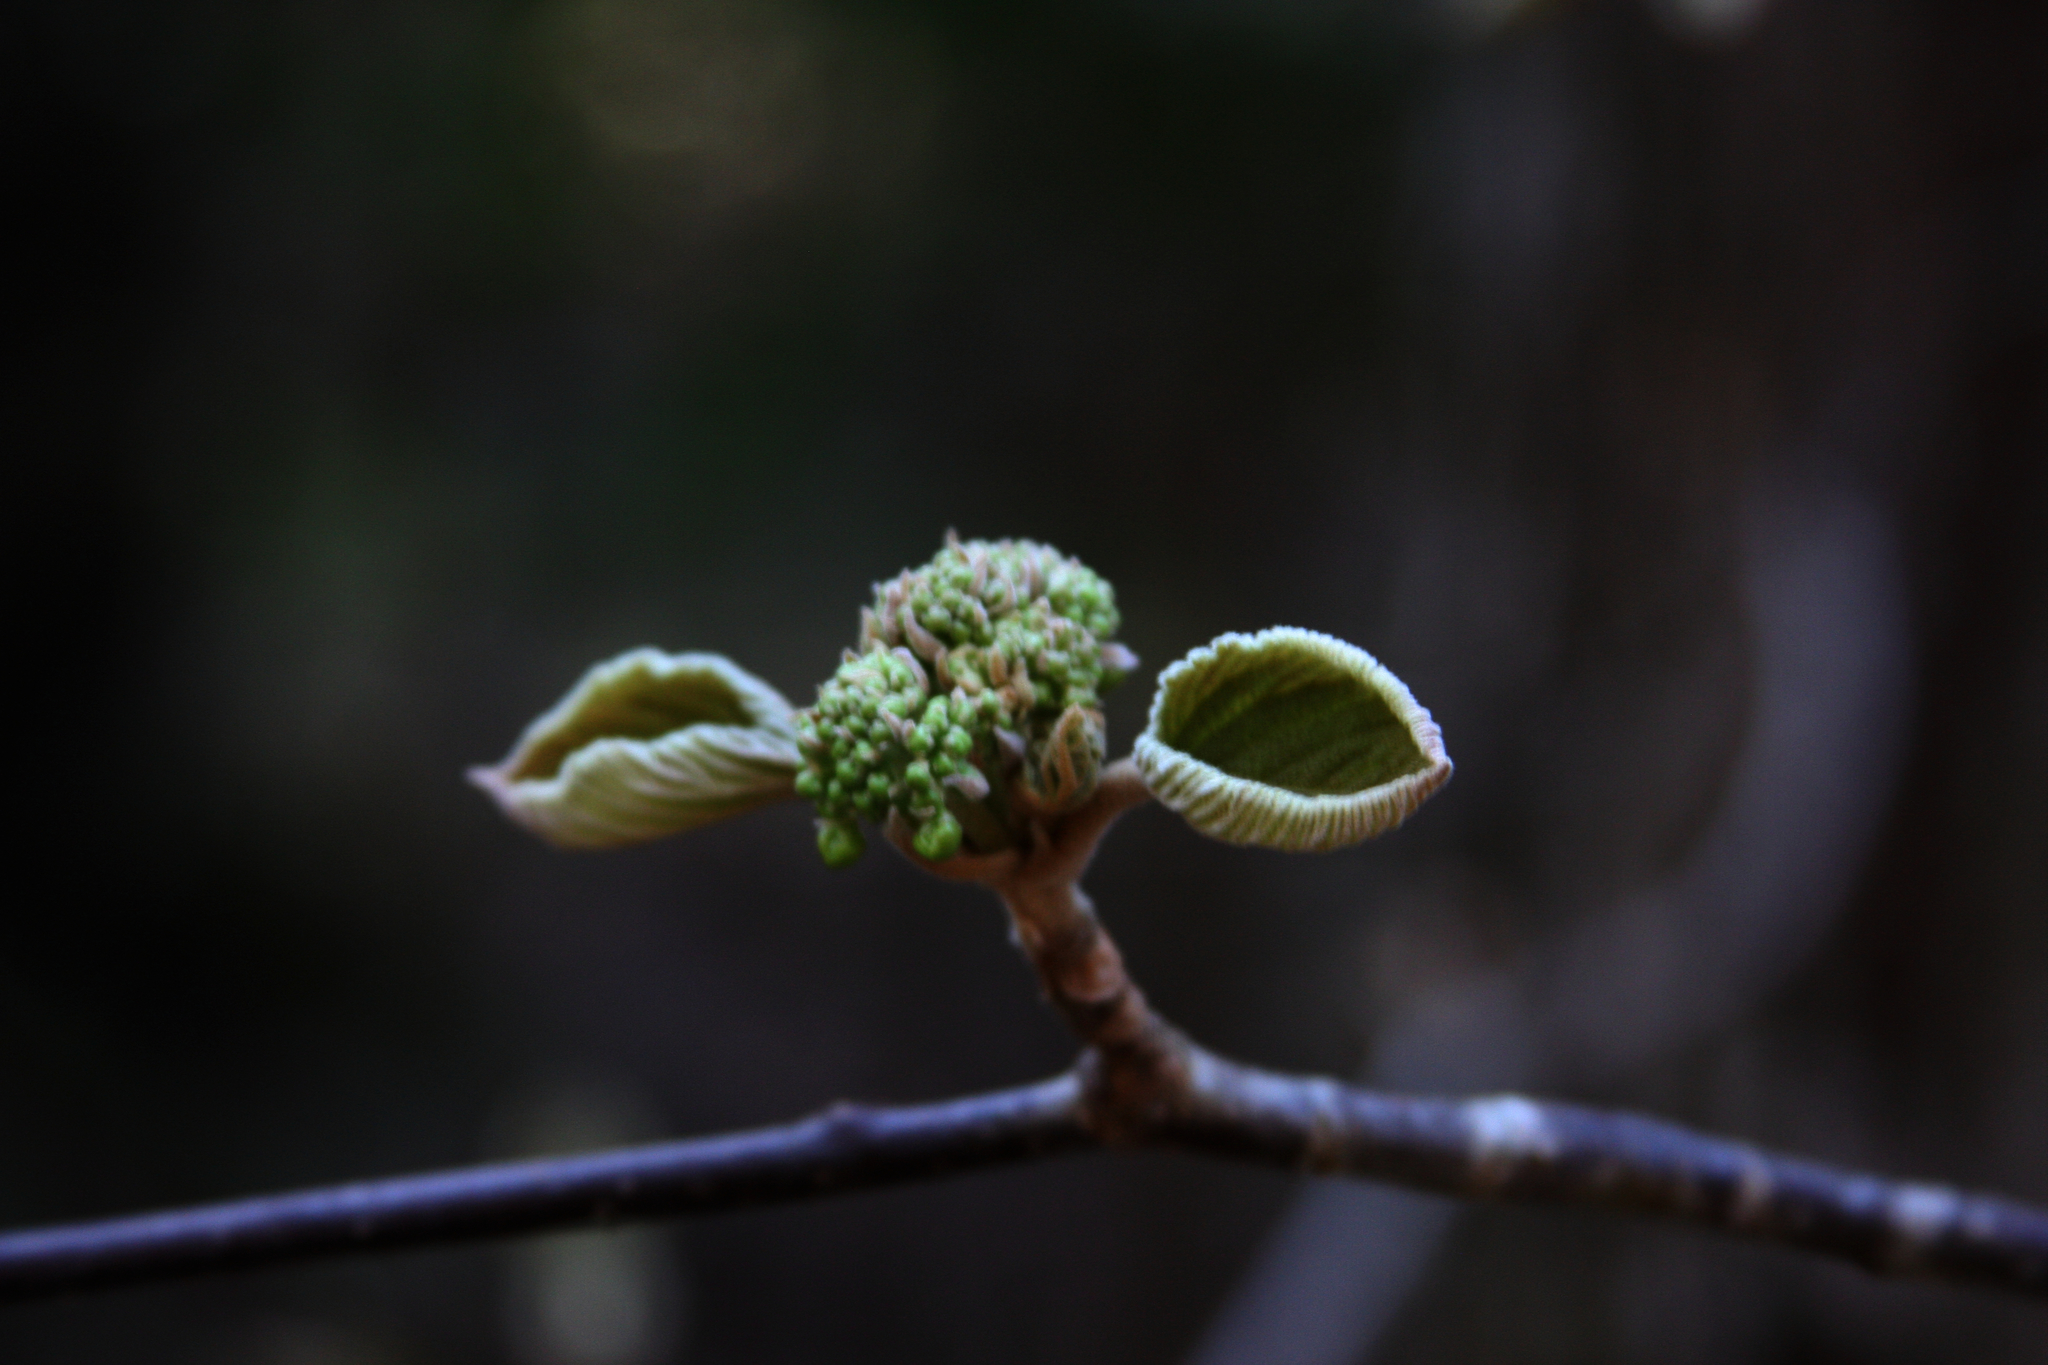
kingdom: Plantae
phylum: Tracheophyta
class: Magnoliopsida
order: Dipsacales
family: Viburnaceae
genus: Viburnum
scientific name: Viburnum lantanoides
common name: Hobblebush
